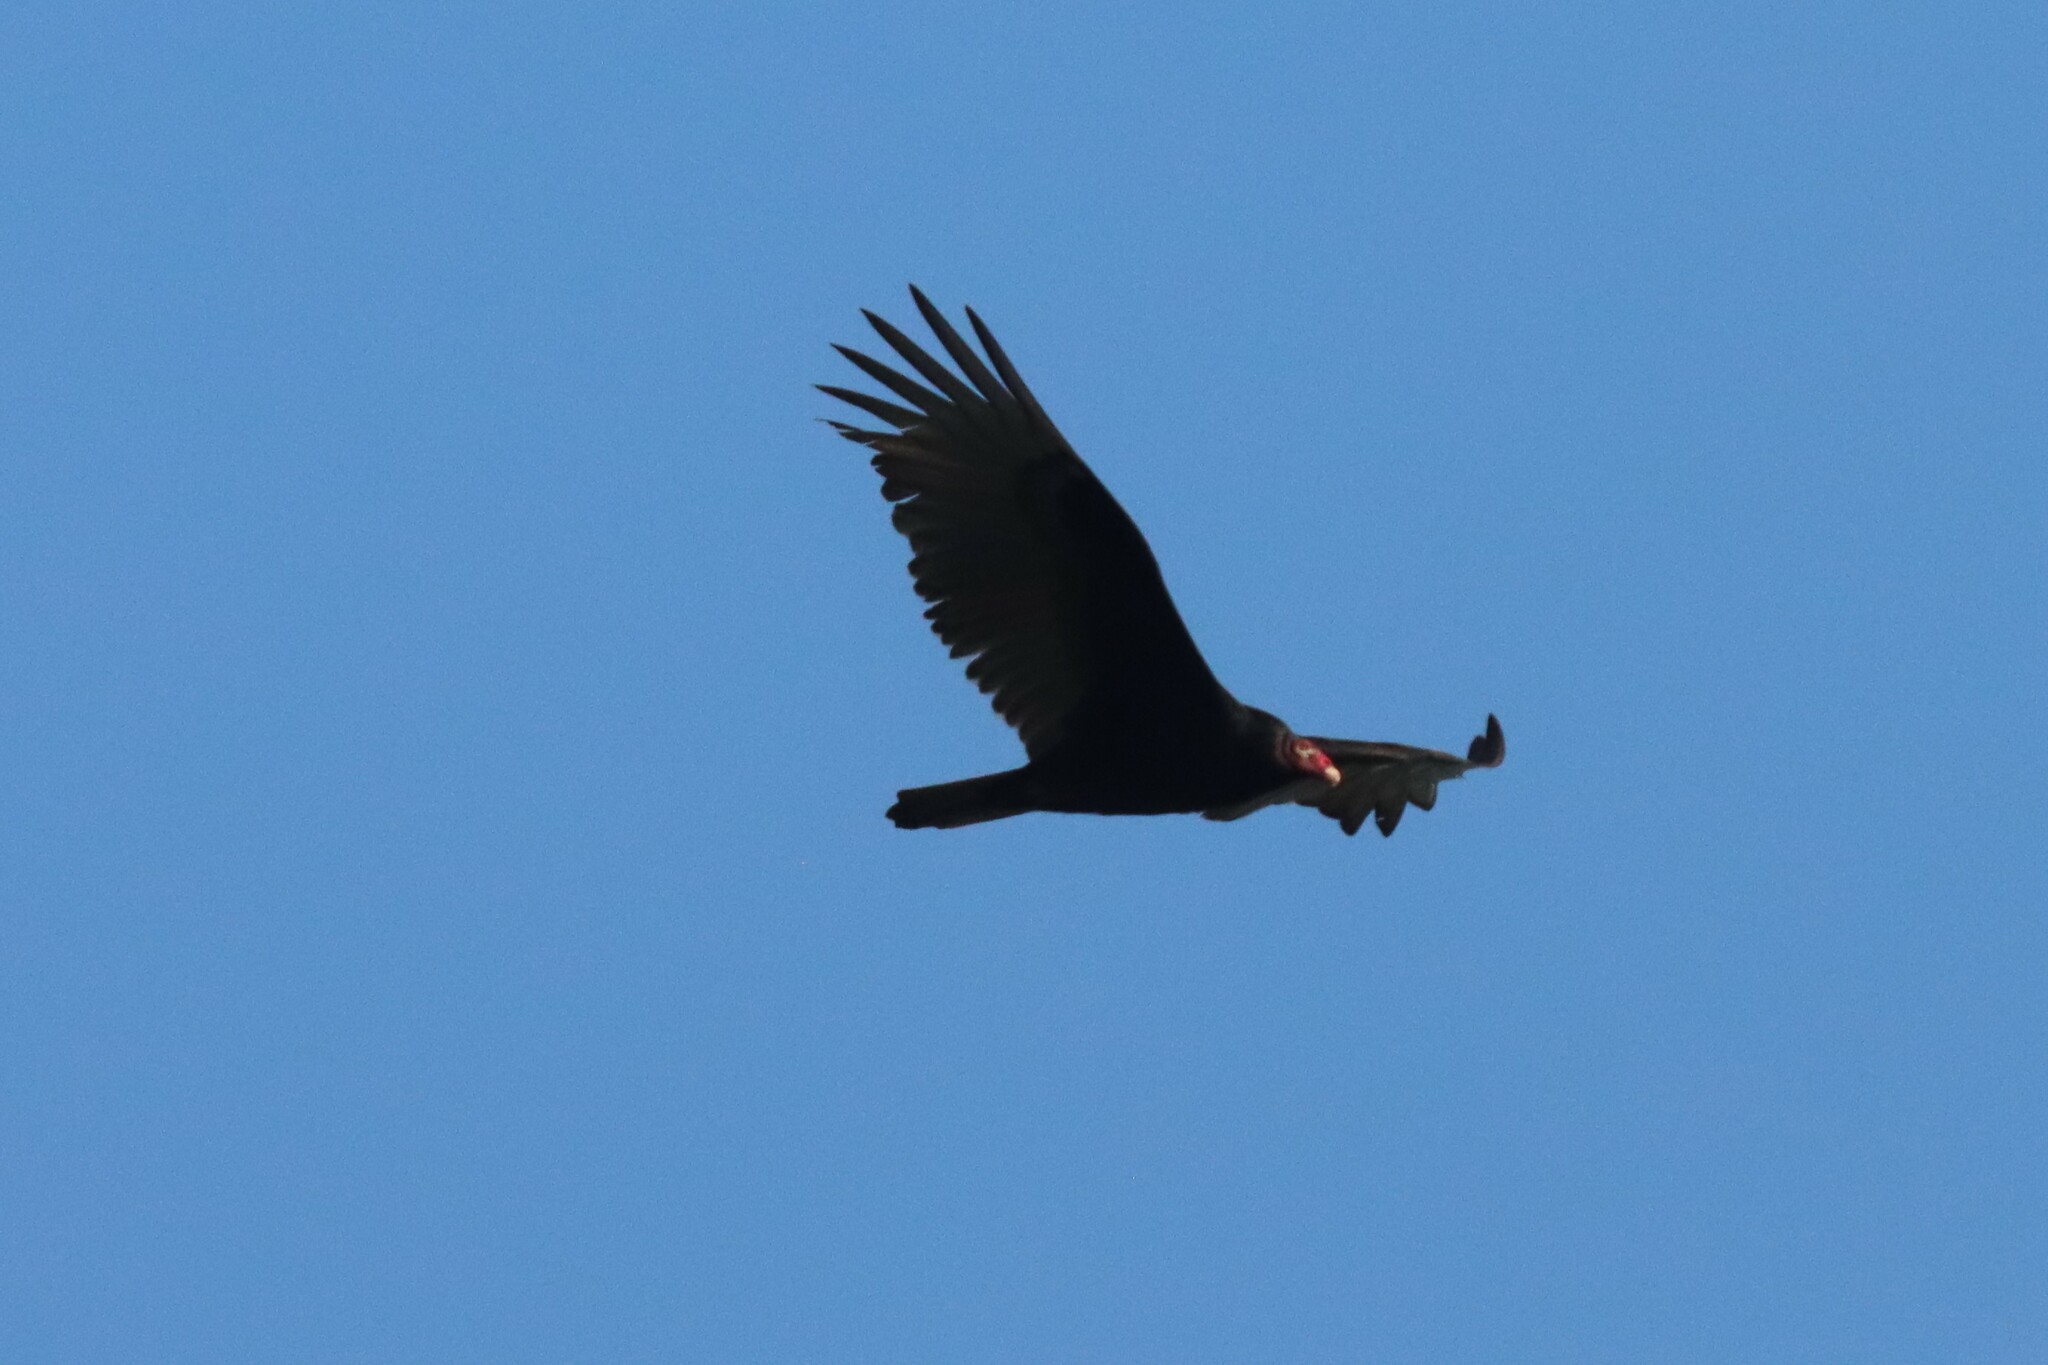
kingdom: Animalia
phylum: Chordata
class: Aves
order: Accipitriformes
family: Cathartidae
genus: Cathartes
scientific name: Cathartes aura
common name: Turkey vulture
